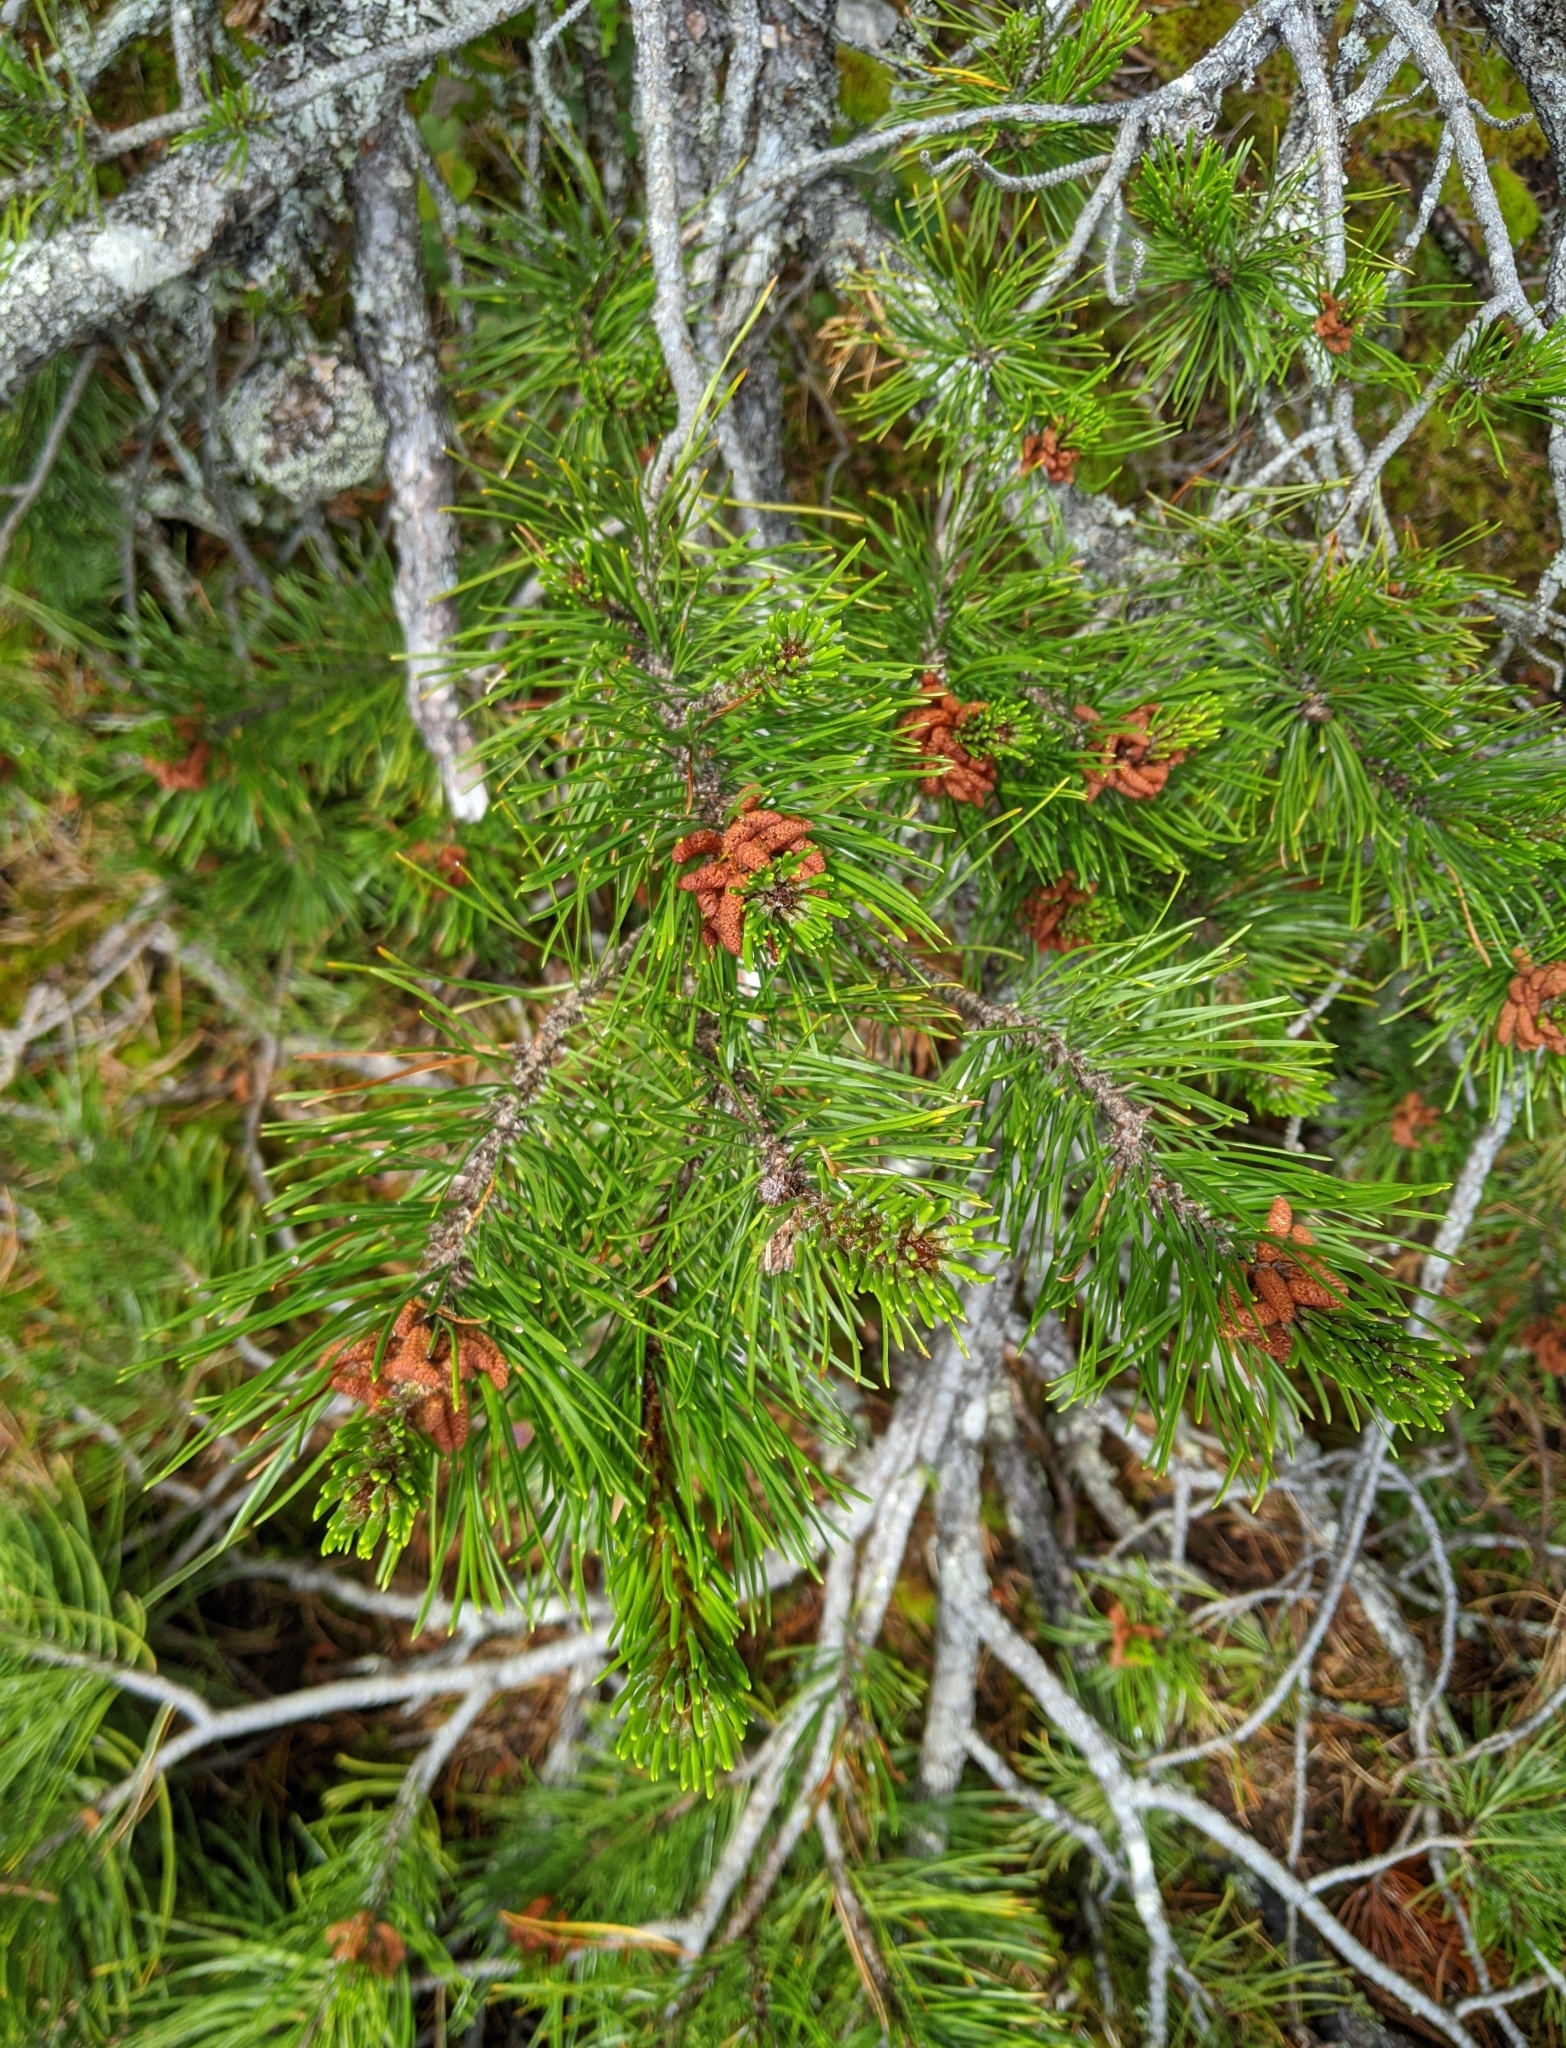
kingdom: Plantae
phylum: Tracheophyta
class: Pinopsida
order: Pinales
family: Pinaceae
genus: Pinus
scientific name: Pinus contorta
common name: Lodgepole pine
